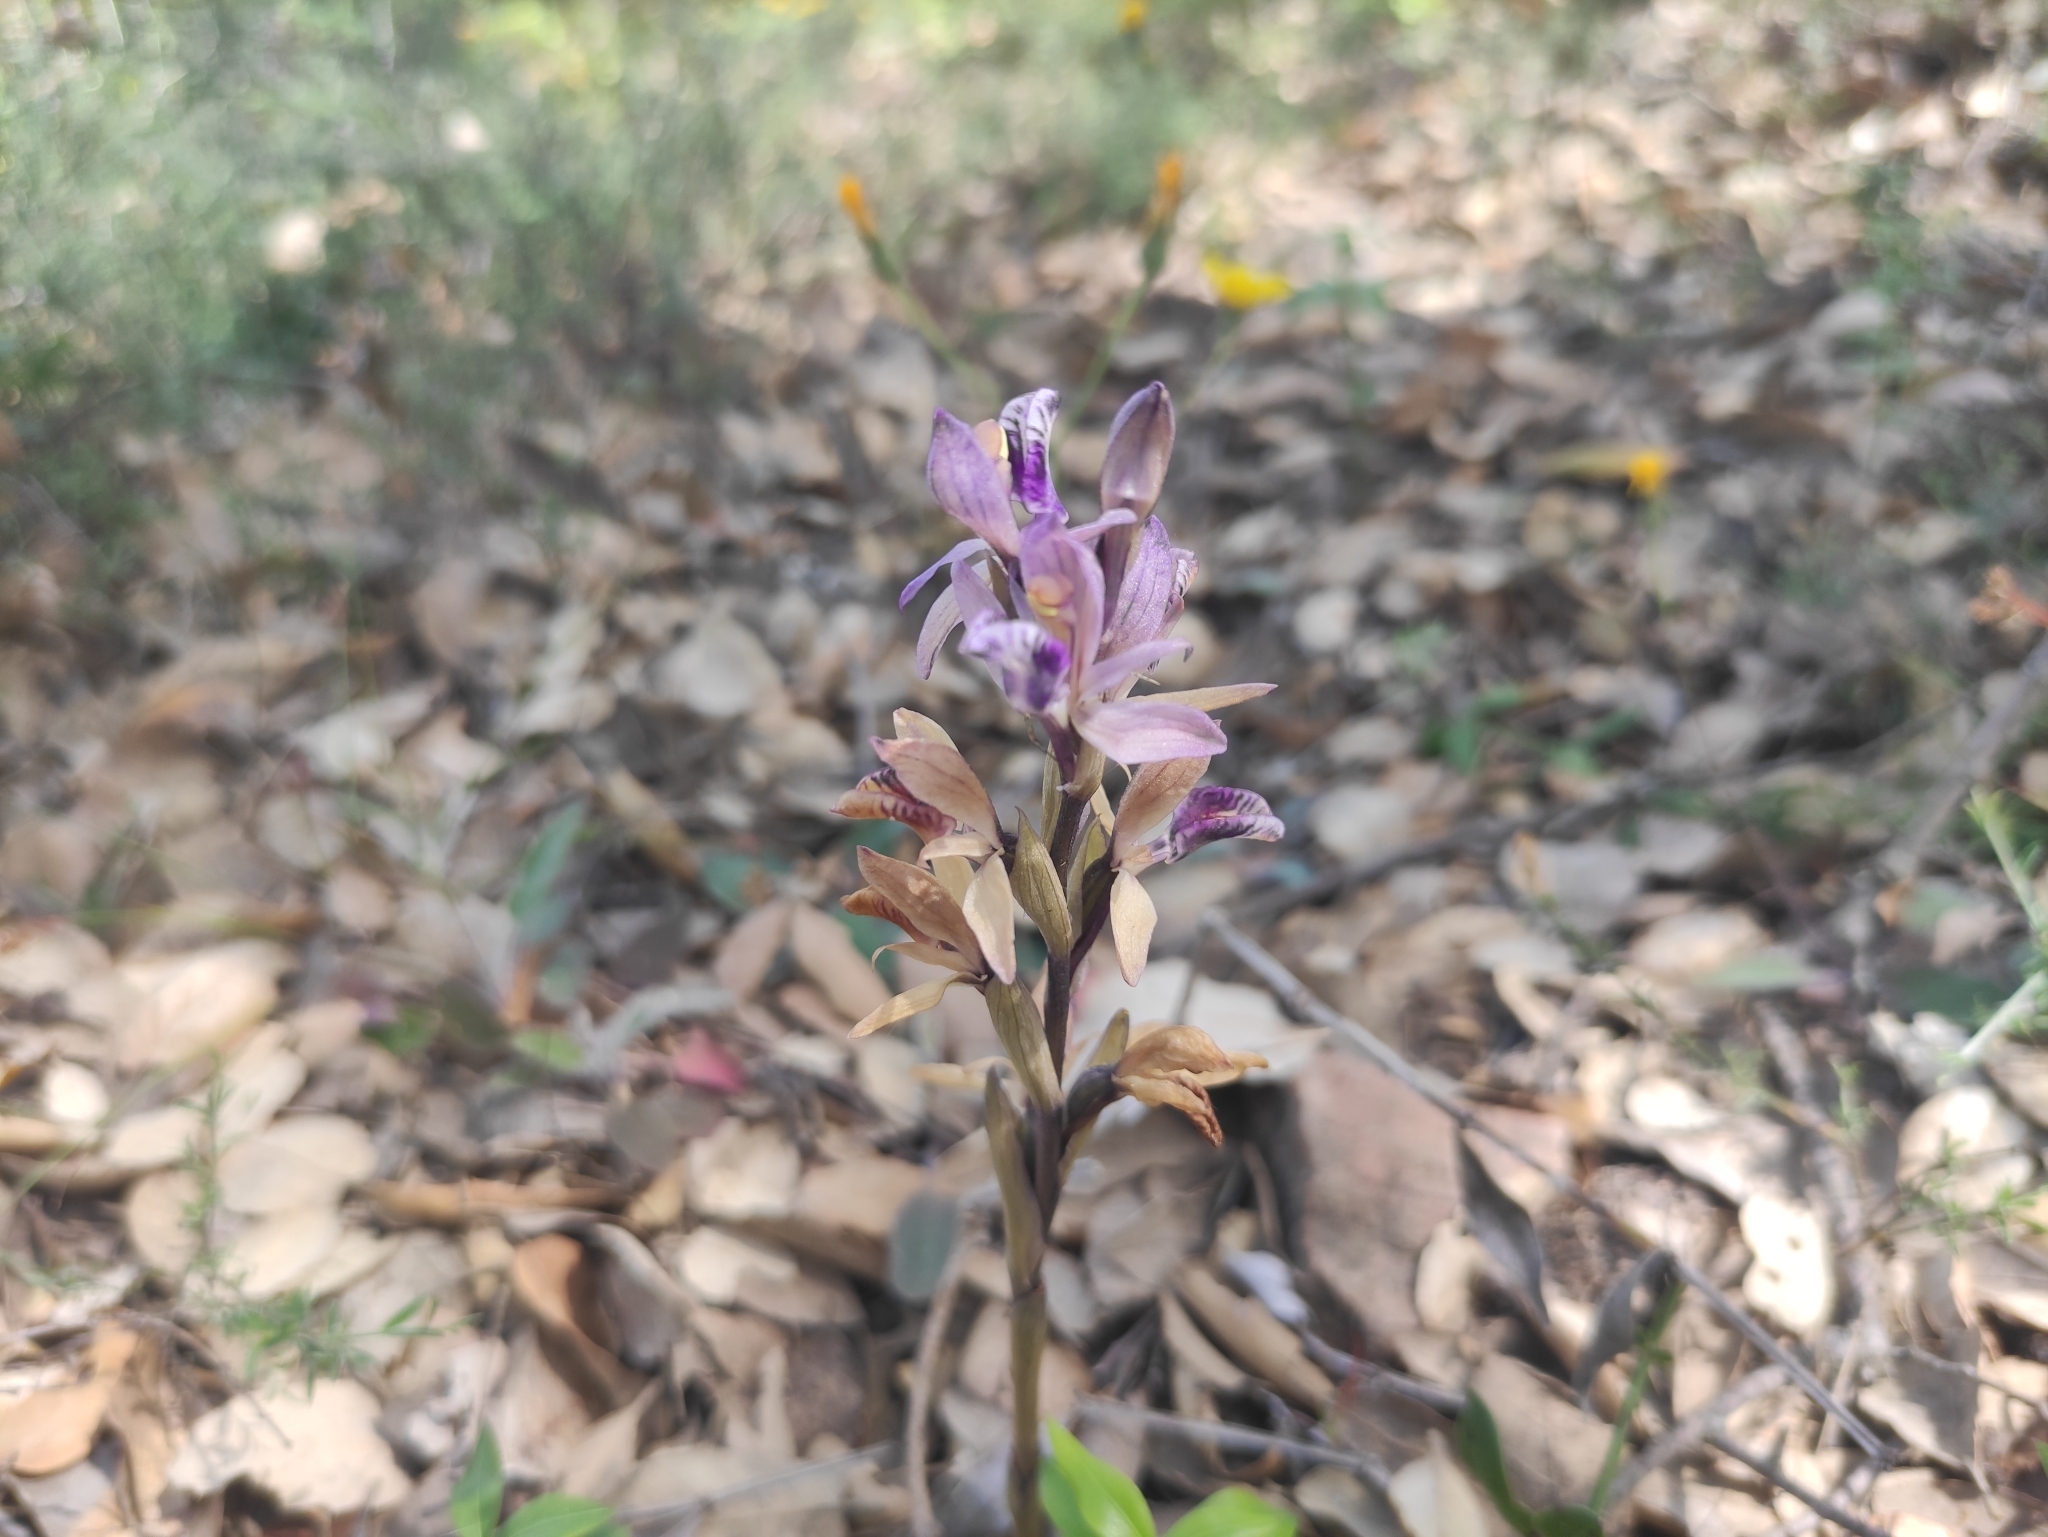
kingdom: Plantae
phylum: Tracheophyta
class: Liliopsida
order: Asparagales
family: Orchidaceae
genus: Limodorum
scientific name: Limodorum abortivum
